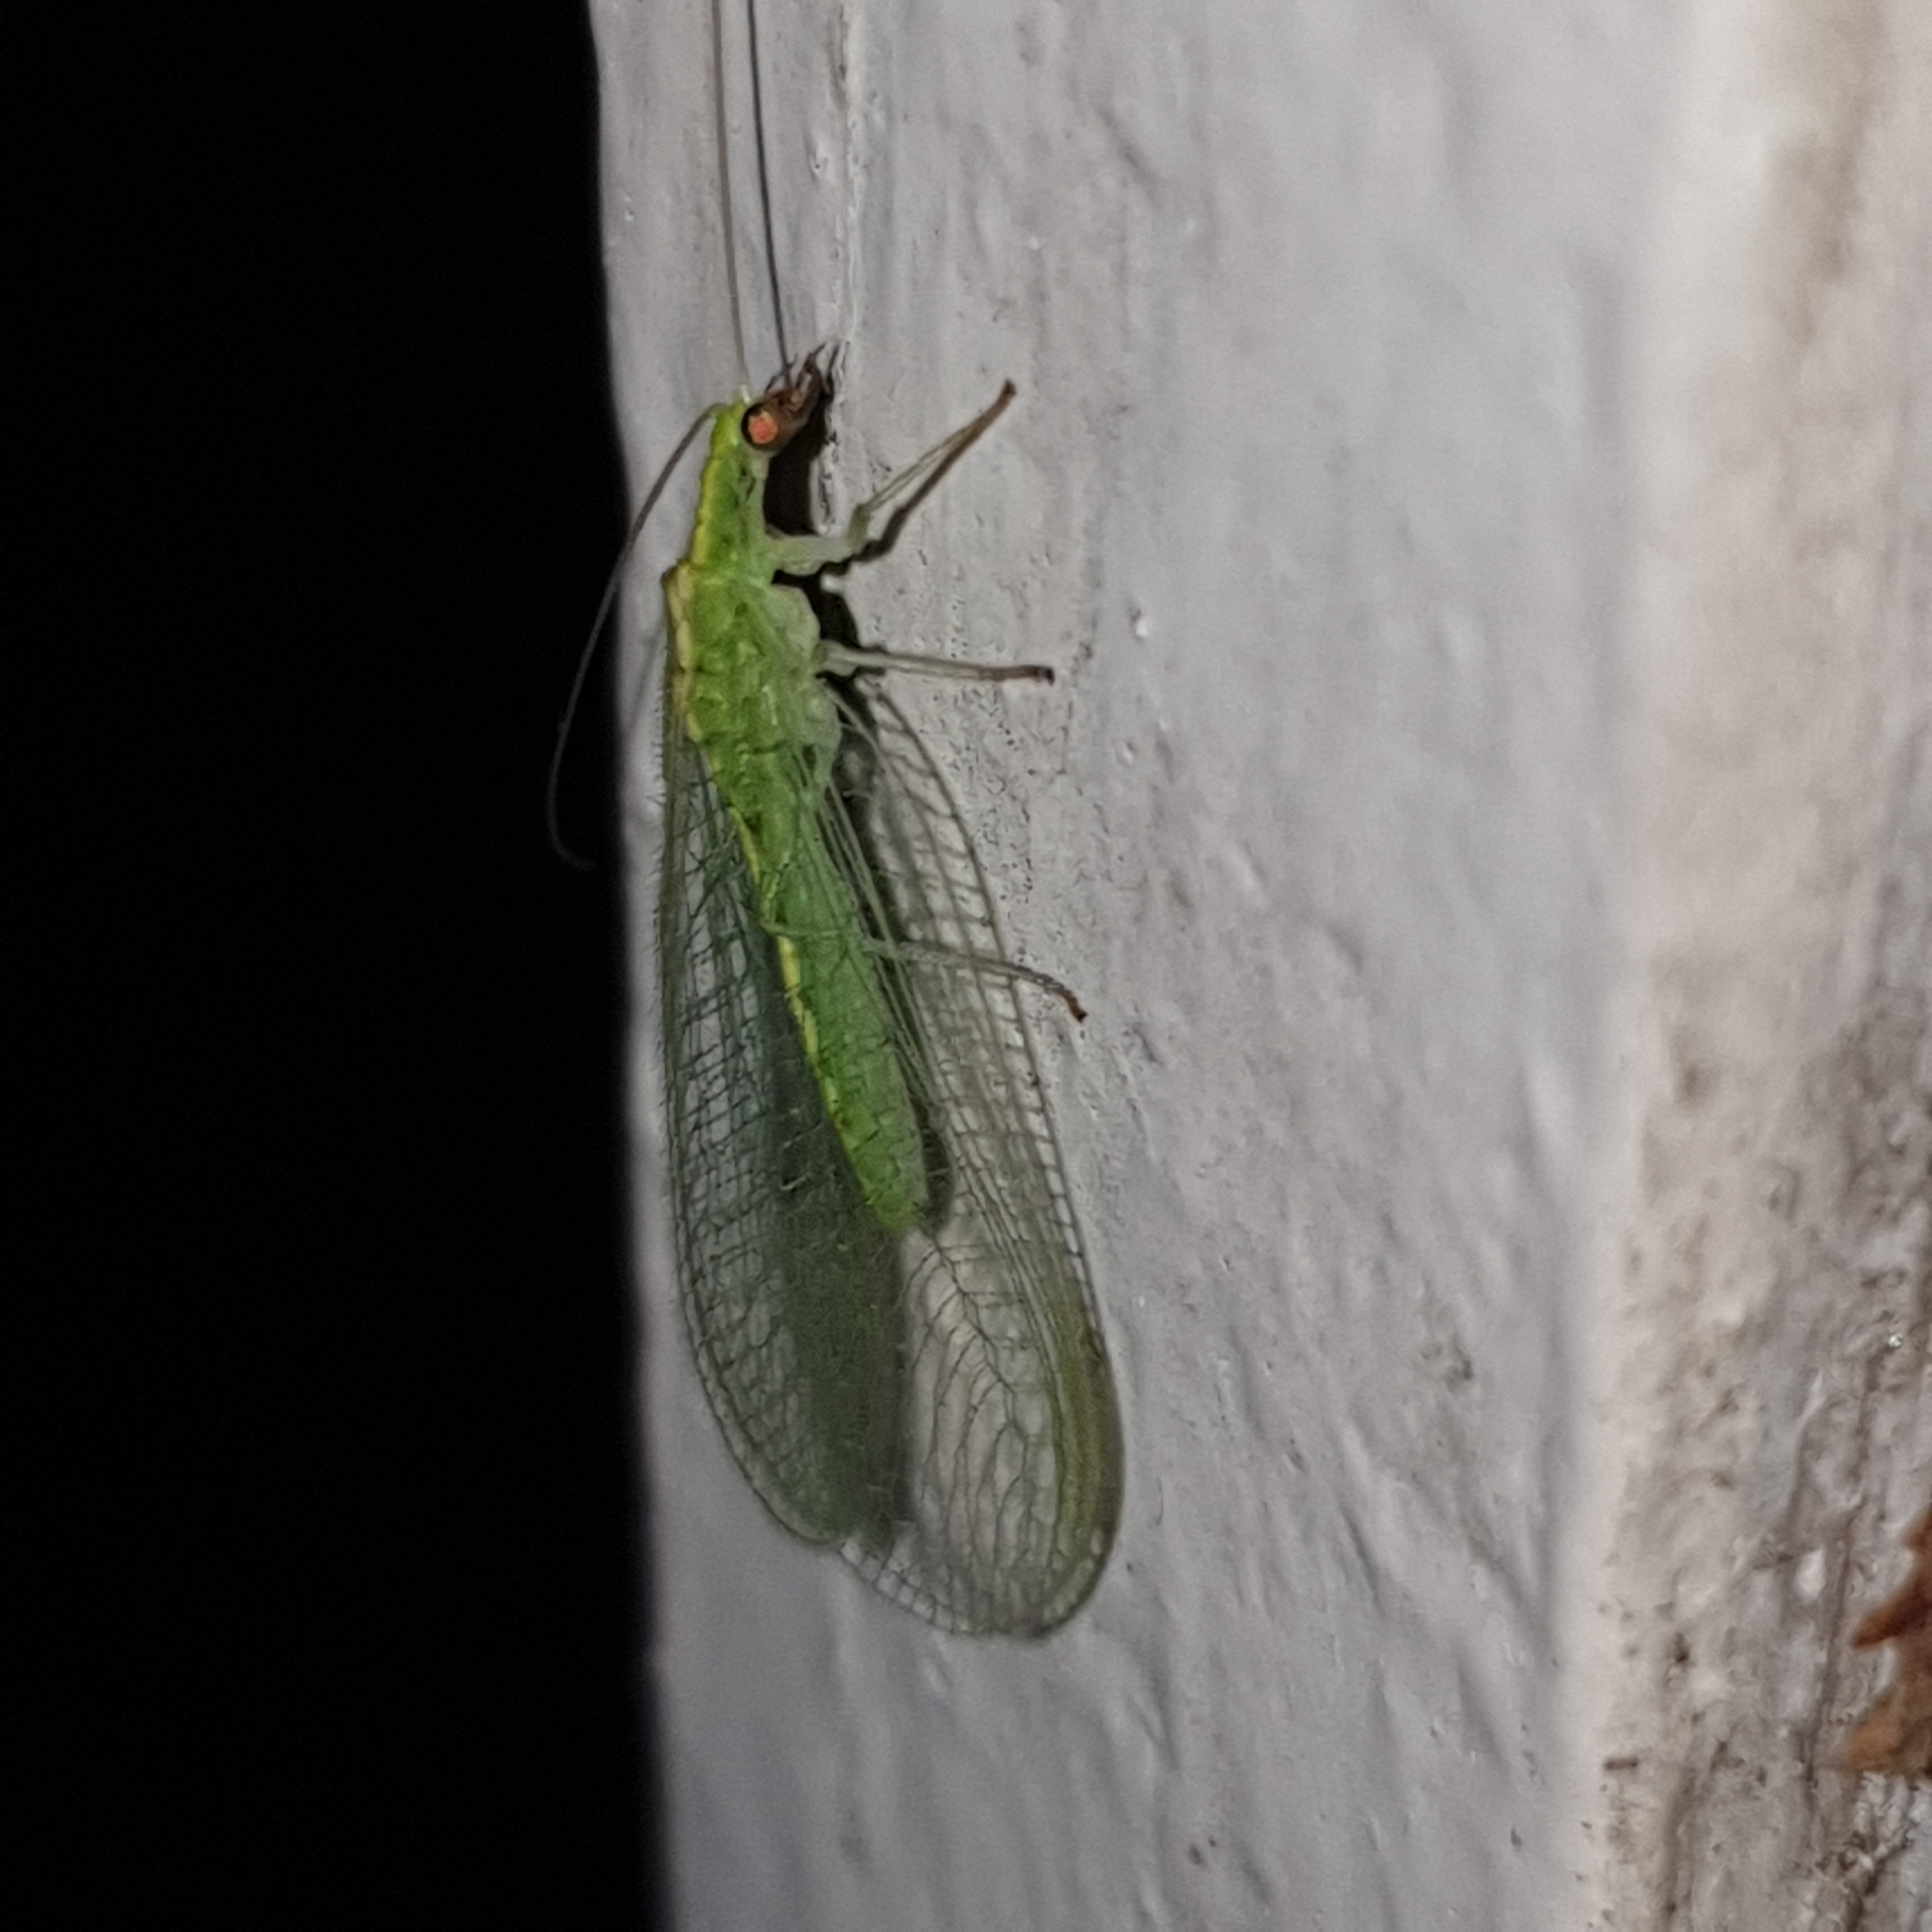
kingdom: Animalia
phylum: Arthropoda
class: Insecta
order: Neuroptera
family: Chrysopidae
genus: Chrysoperla
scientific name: Chrysoperla
